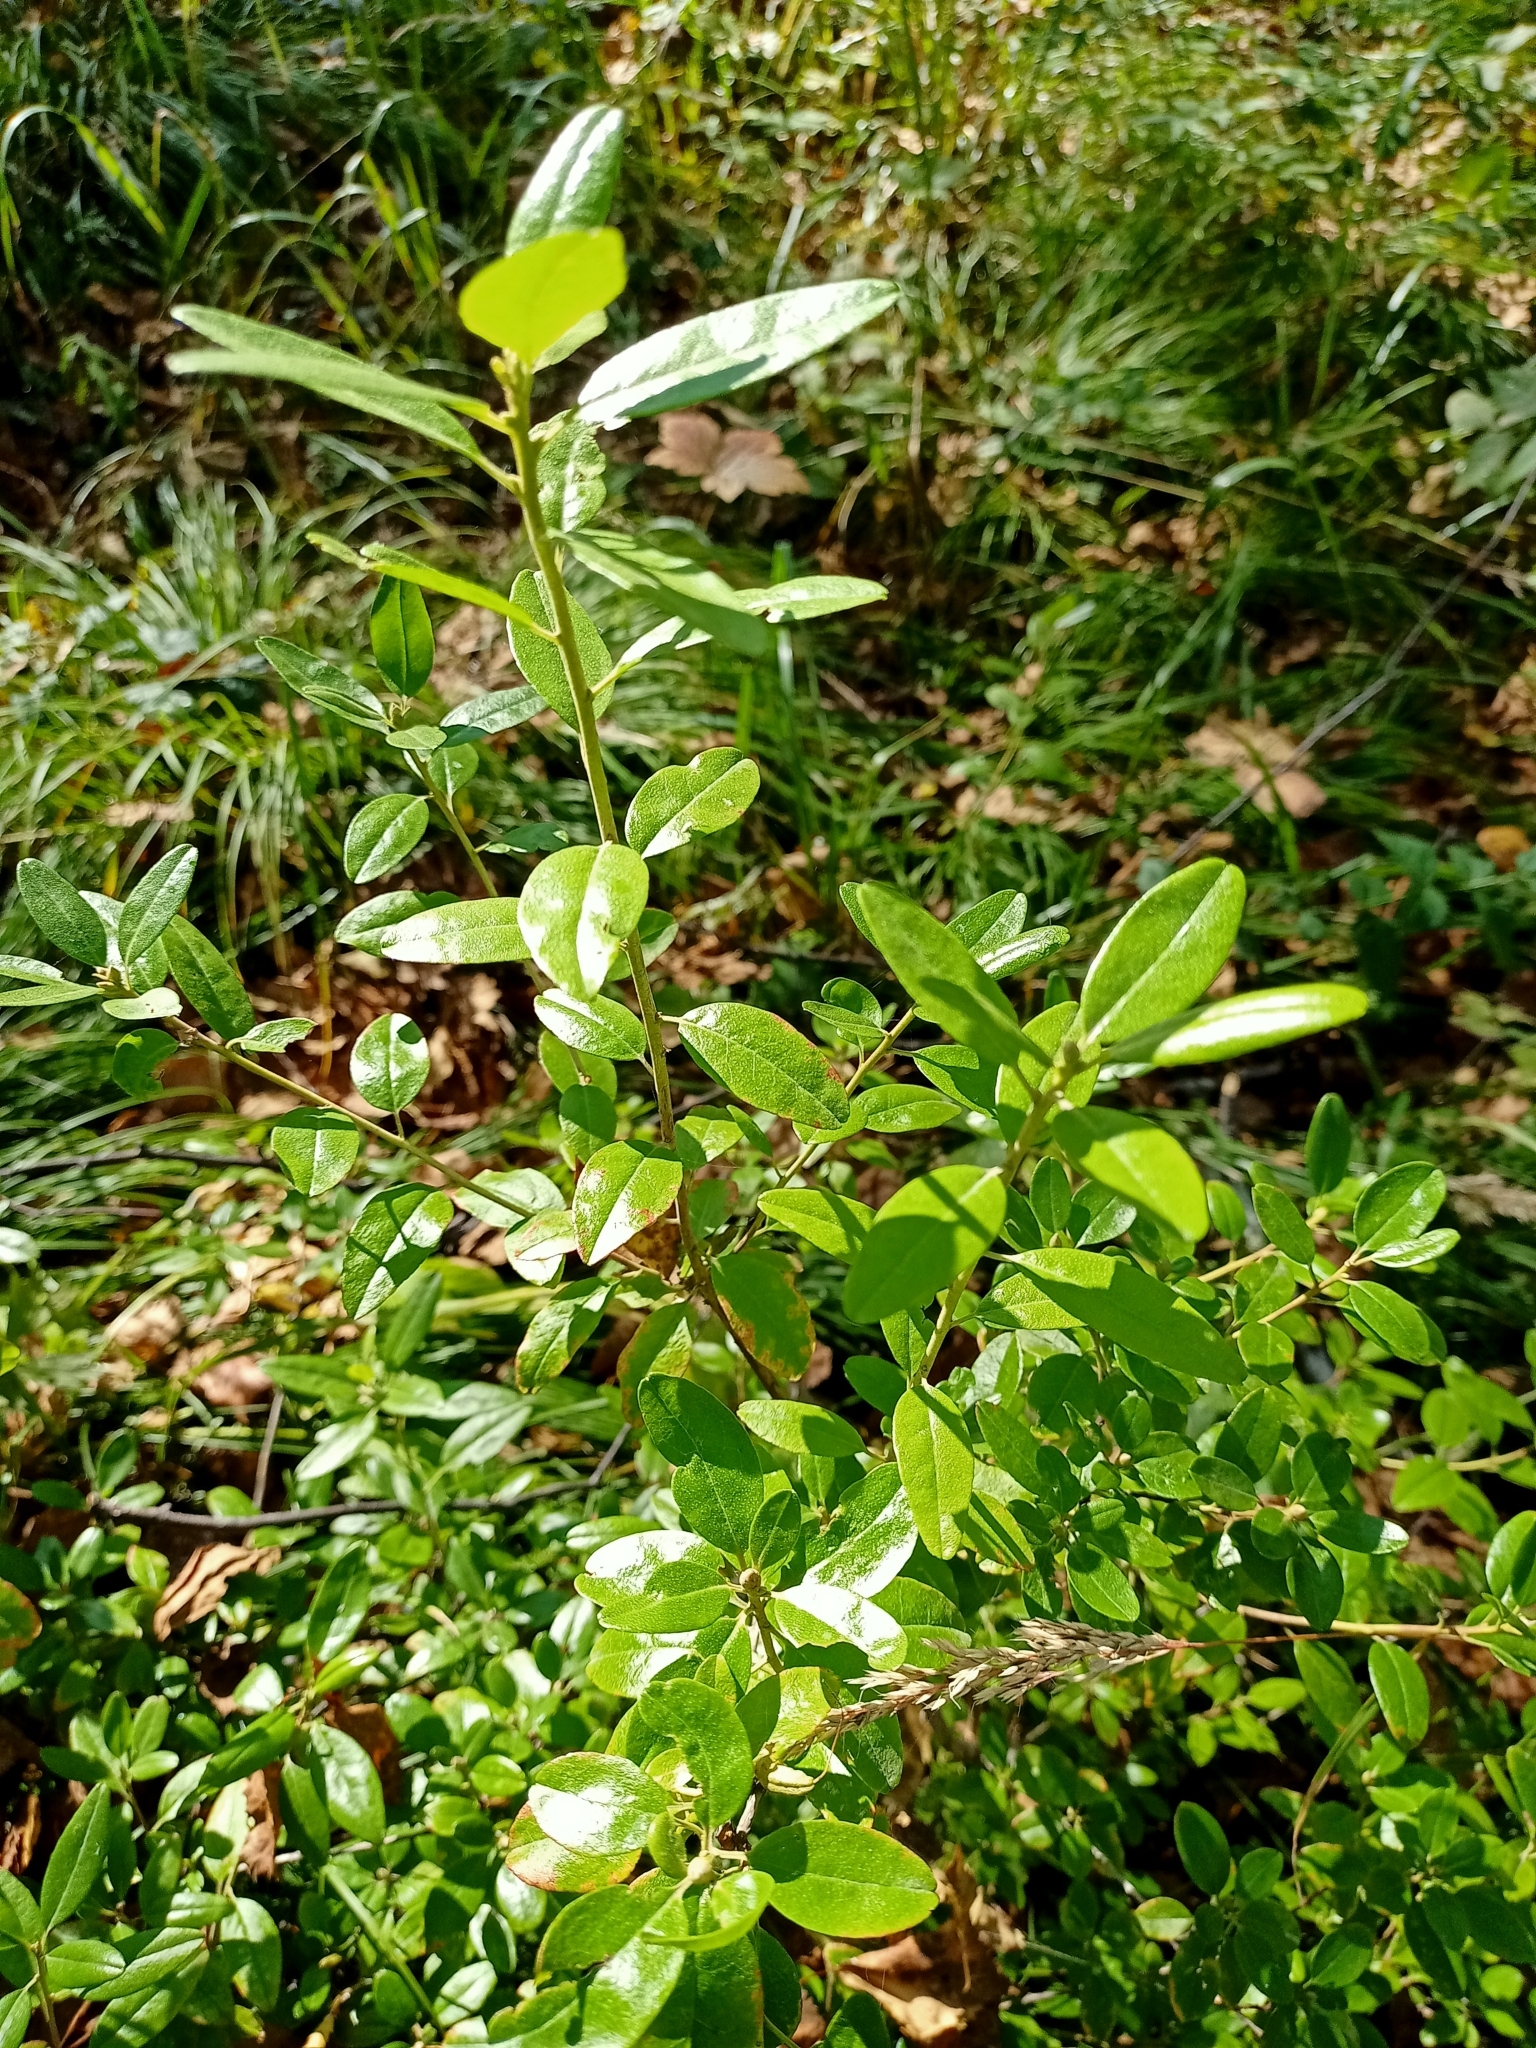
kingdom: Plantae
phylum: Tracheophyta
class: Magnoliopsida
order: Ericales
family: Ericaceae
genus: Rhododendron
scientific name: Rhododendron dauricum
